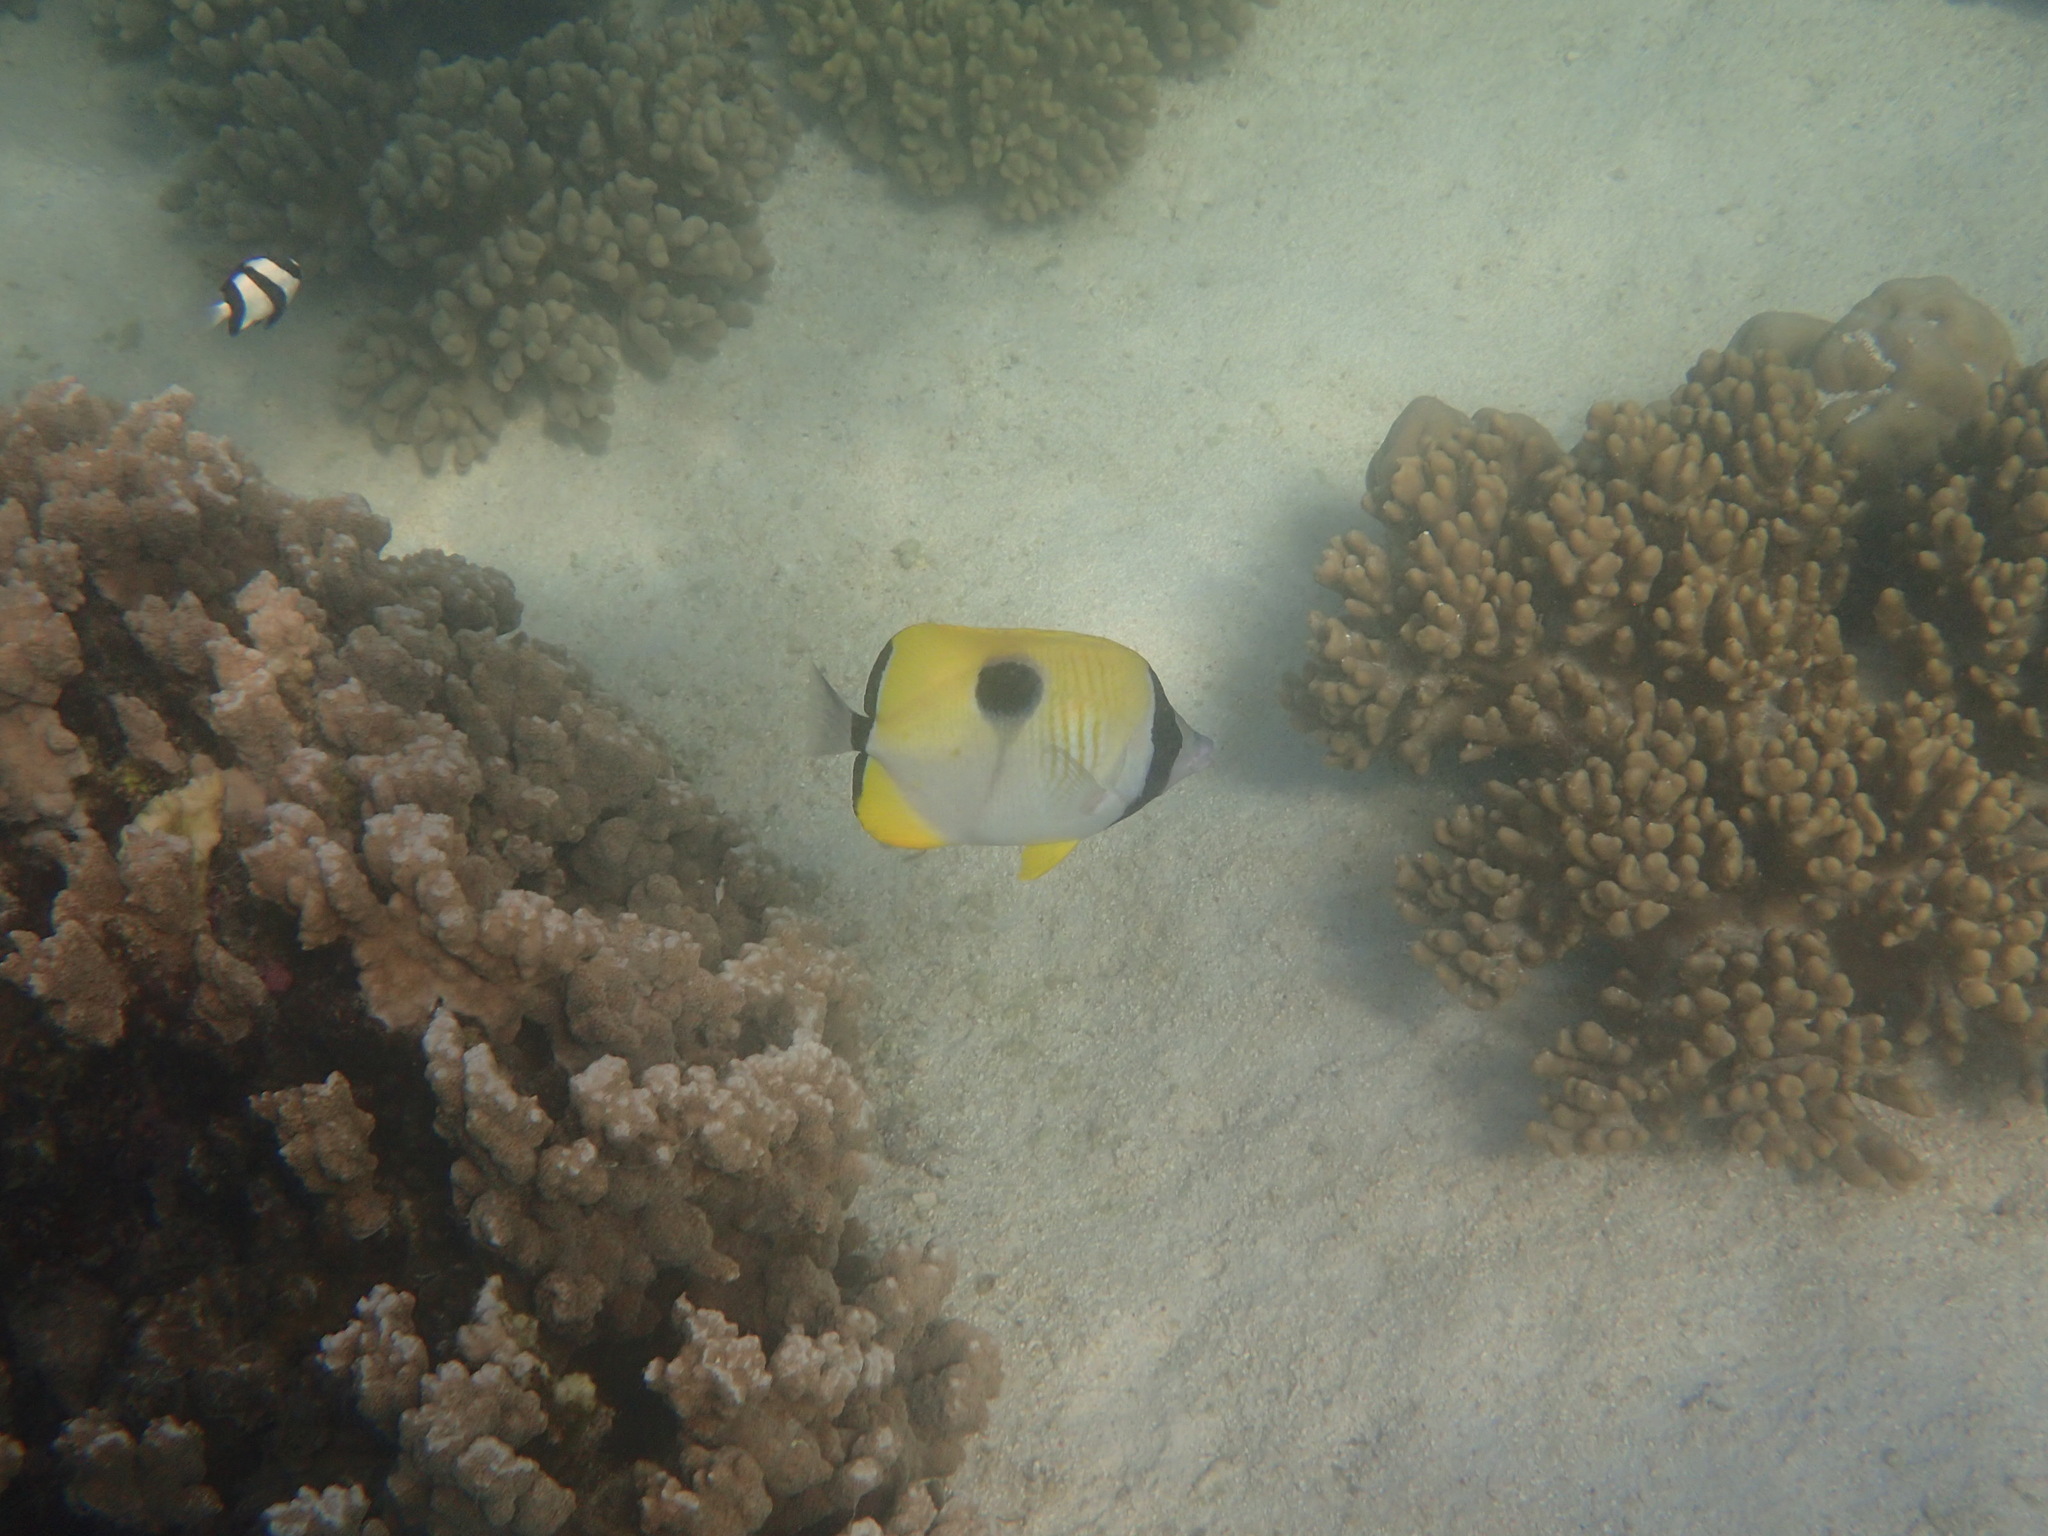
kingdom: Animalia
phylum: Chordata
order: Perciformes
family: Chaetodontidae
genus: Chaetodon
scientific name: Chaetodon unimaculatus
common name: Teardrop butterflyfish
